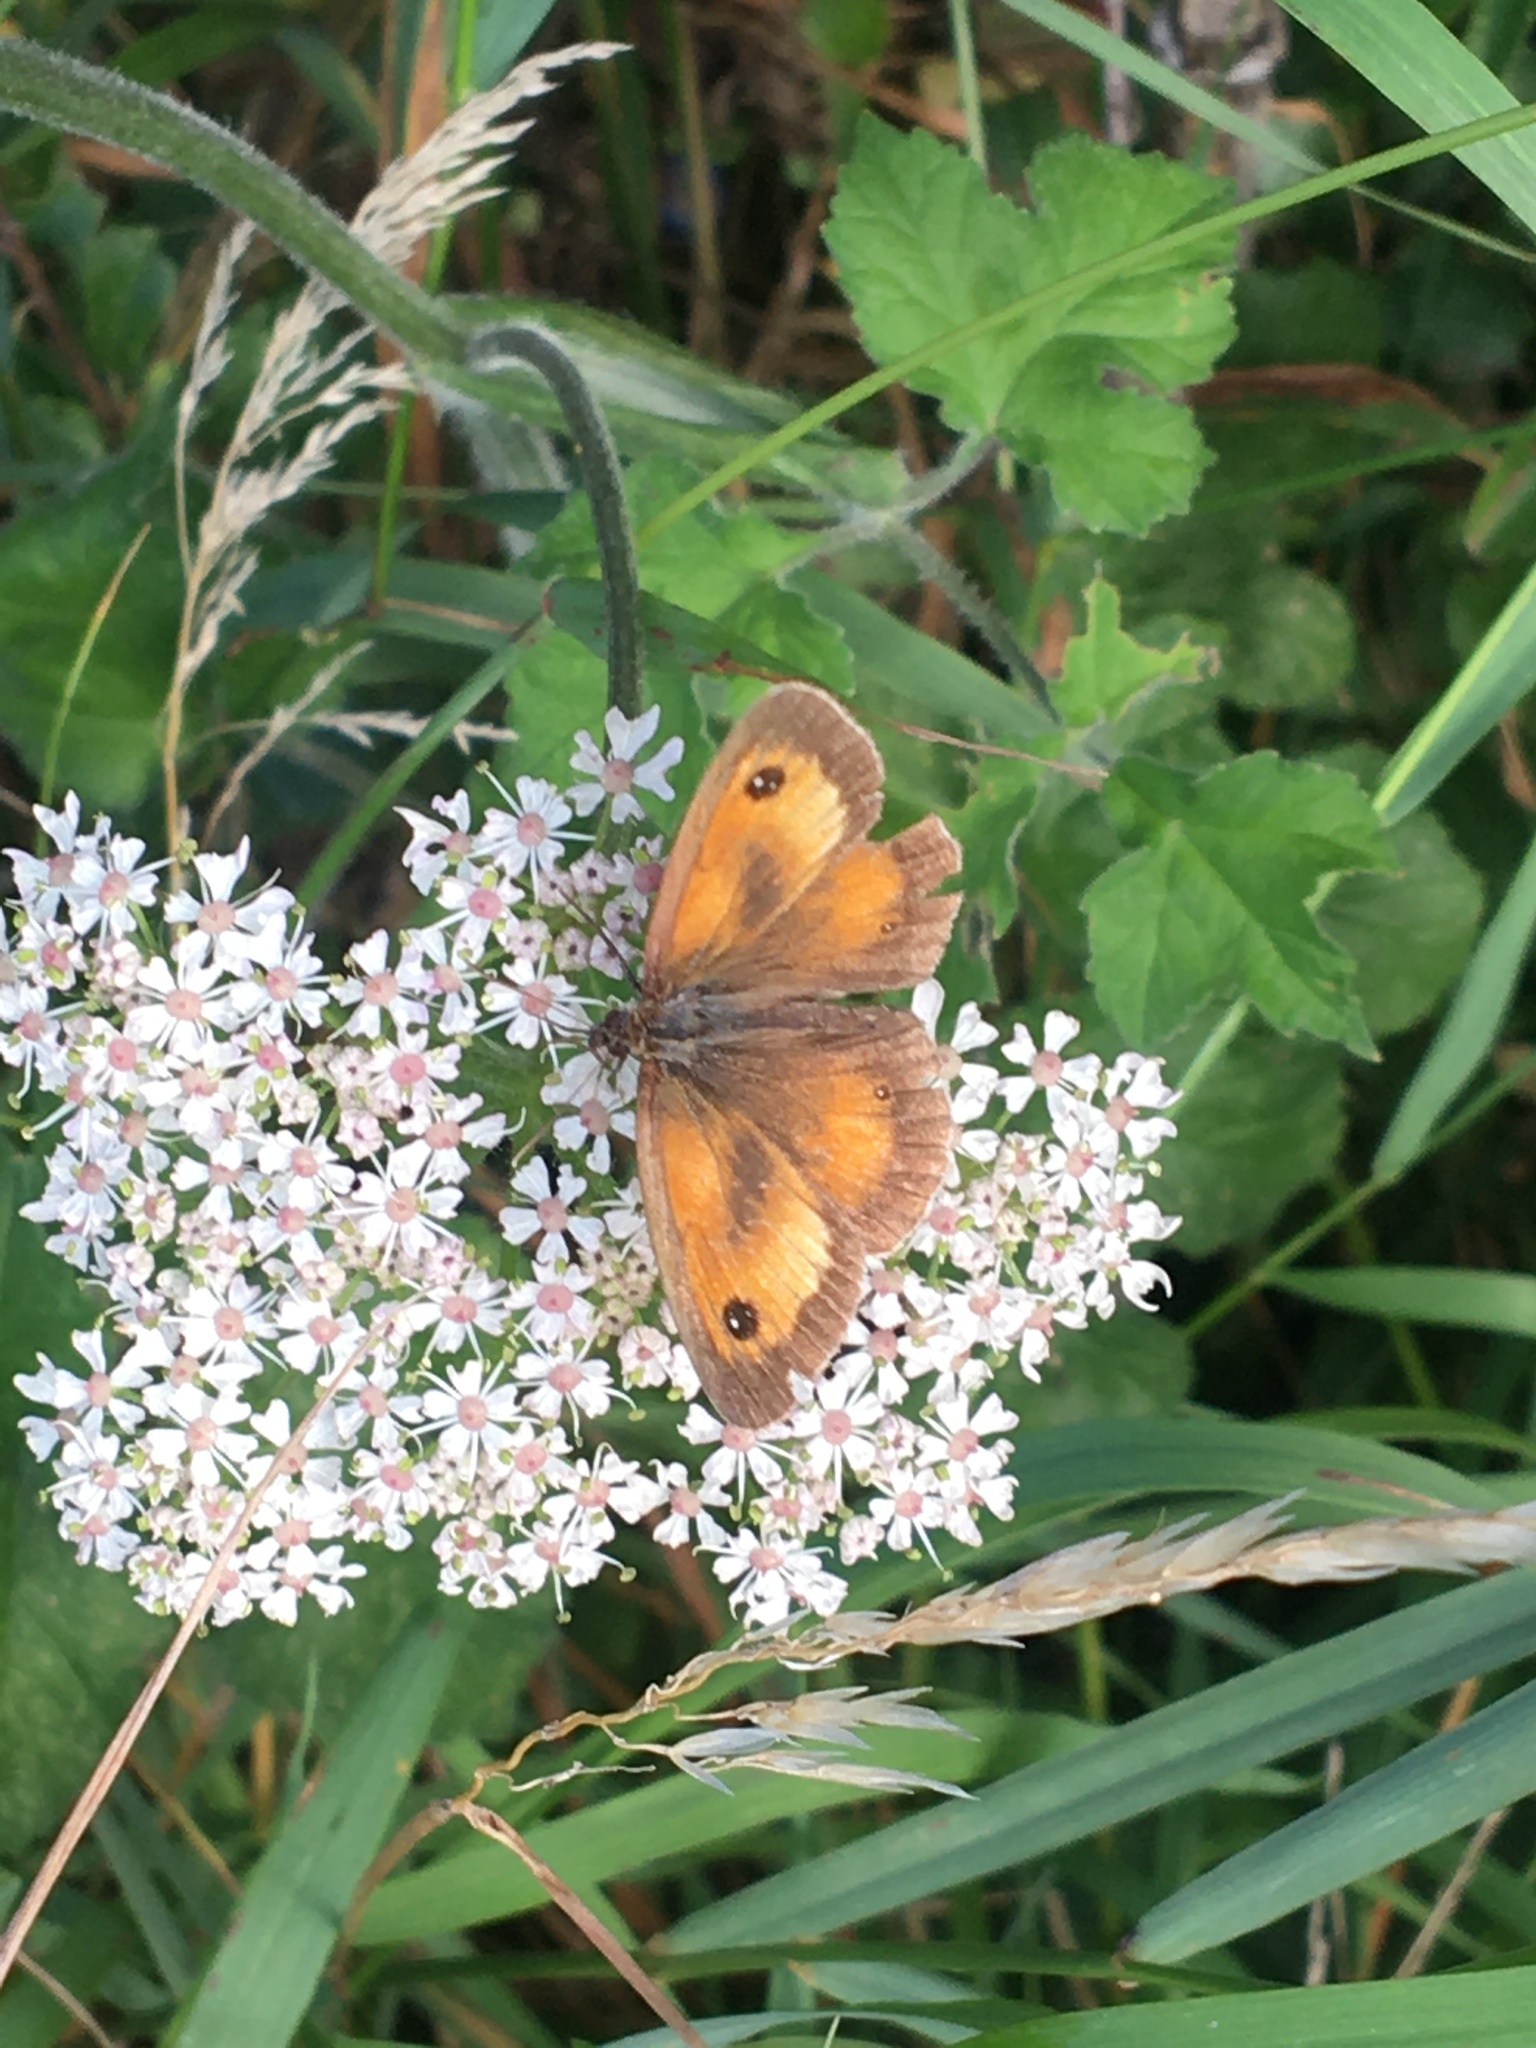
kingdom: Animalia
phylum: Arthropoda
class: Insecta
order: Lepidoptera
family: Nymphalidae
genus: Pyronia
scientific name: Pyronia tithonus
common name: Gatekeeper
